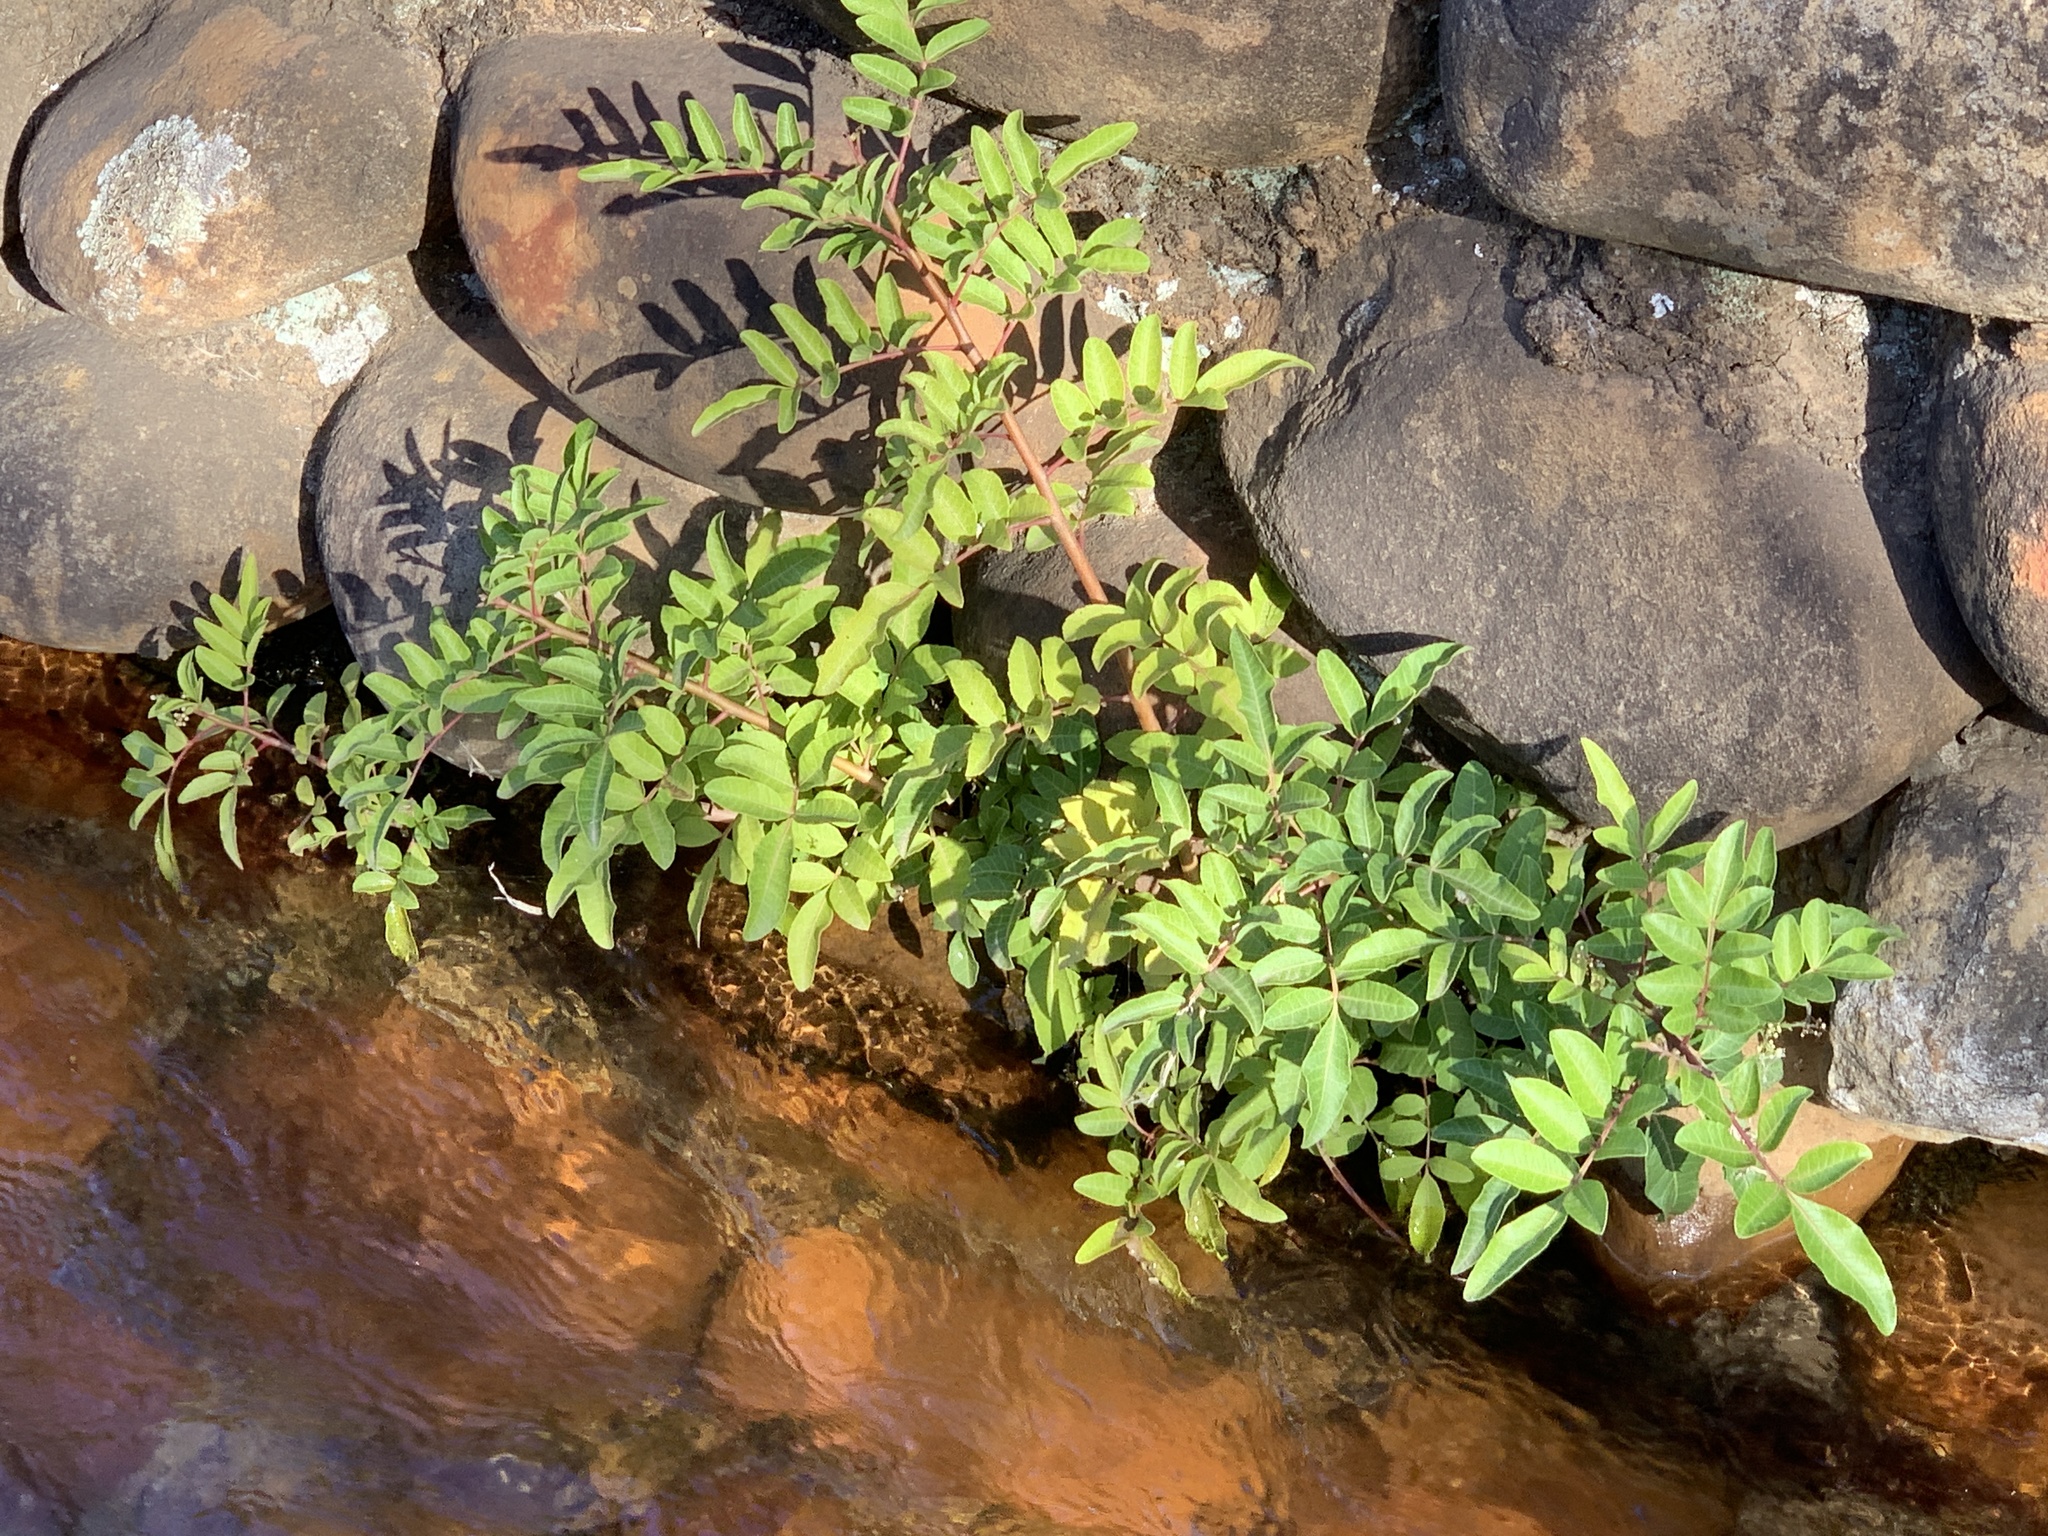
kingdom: Plantae
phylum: Tracheophyta
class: Magnoliopsida
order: Sapindales
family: Anacardiaceae
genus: Schinus
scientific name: Schinus terebinthifolia
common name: Brazilian peppertree
